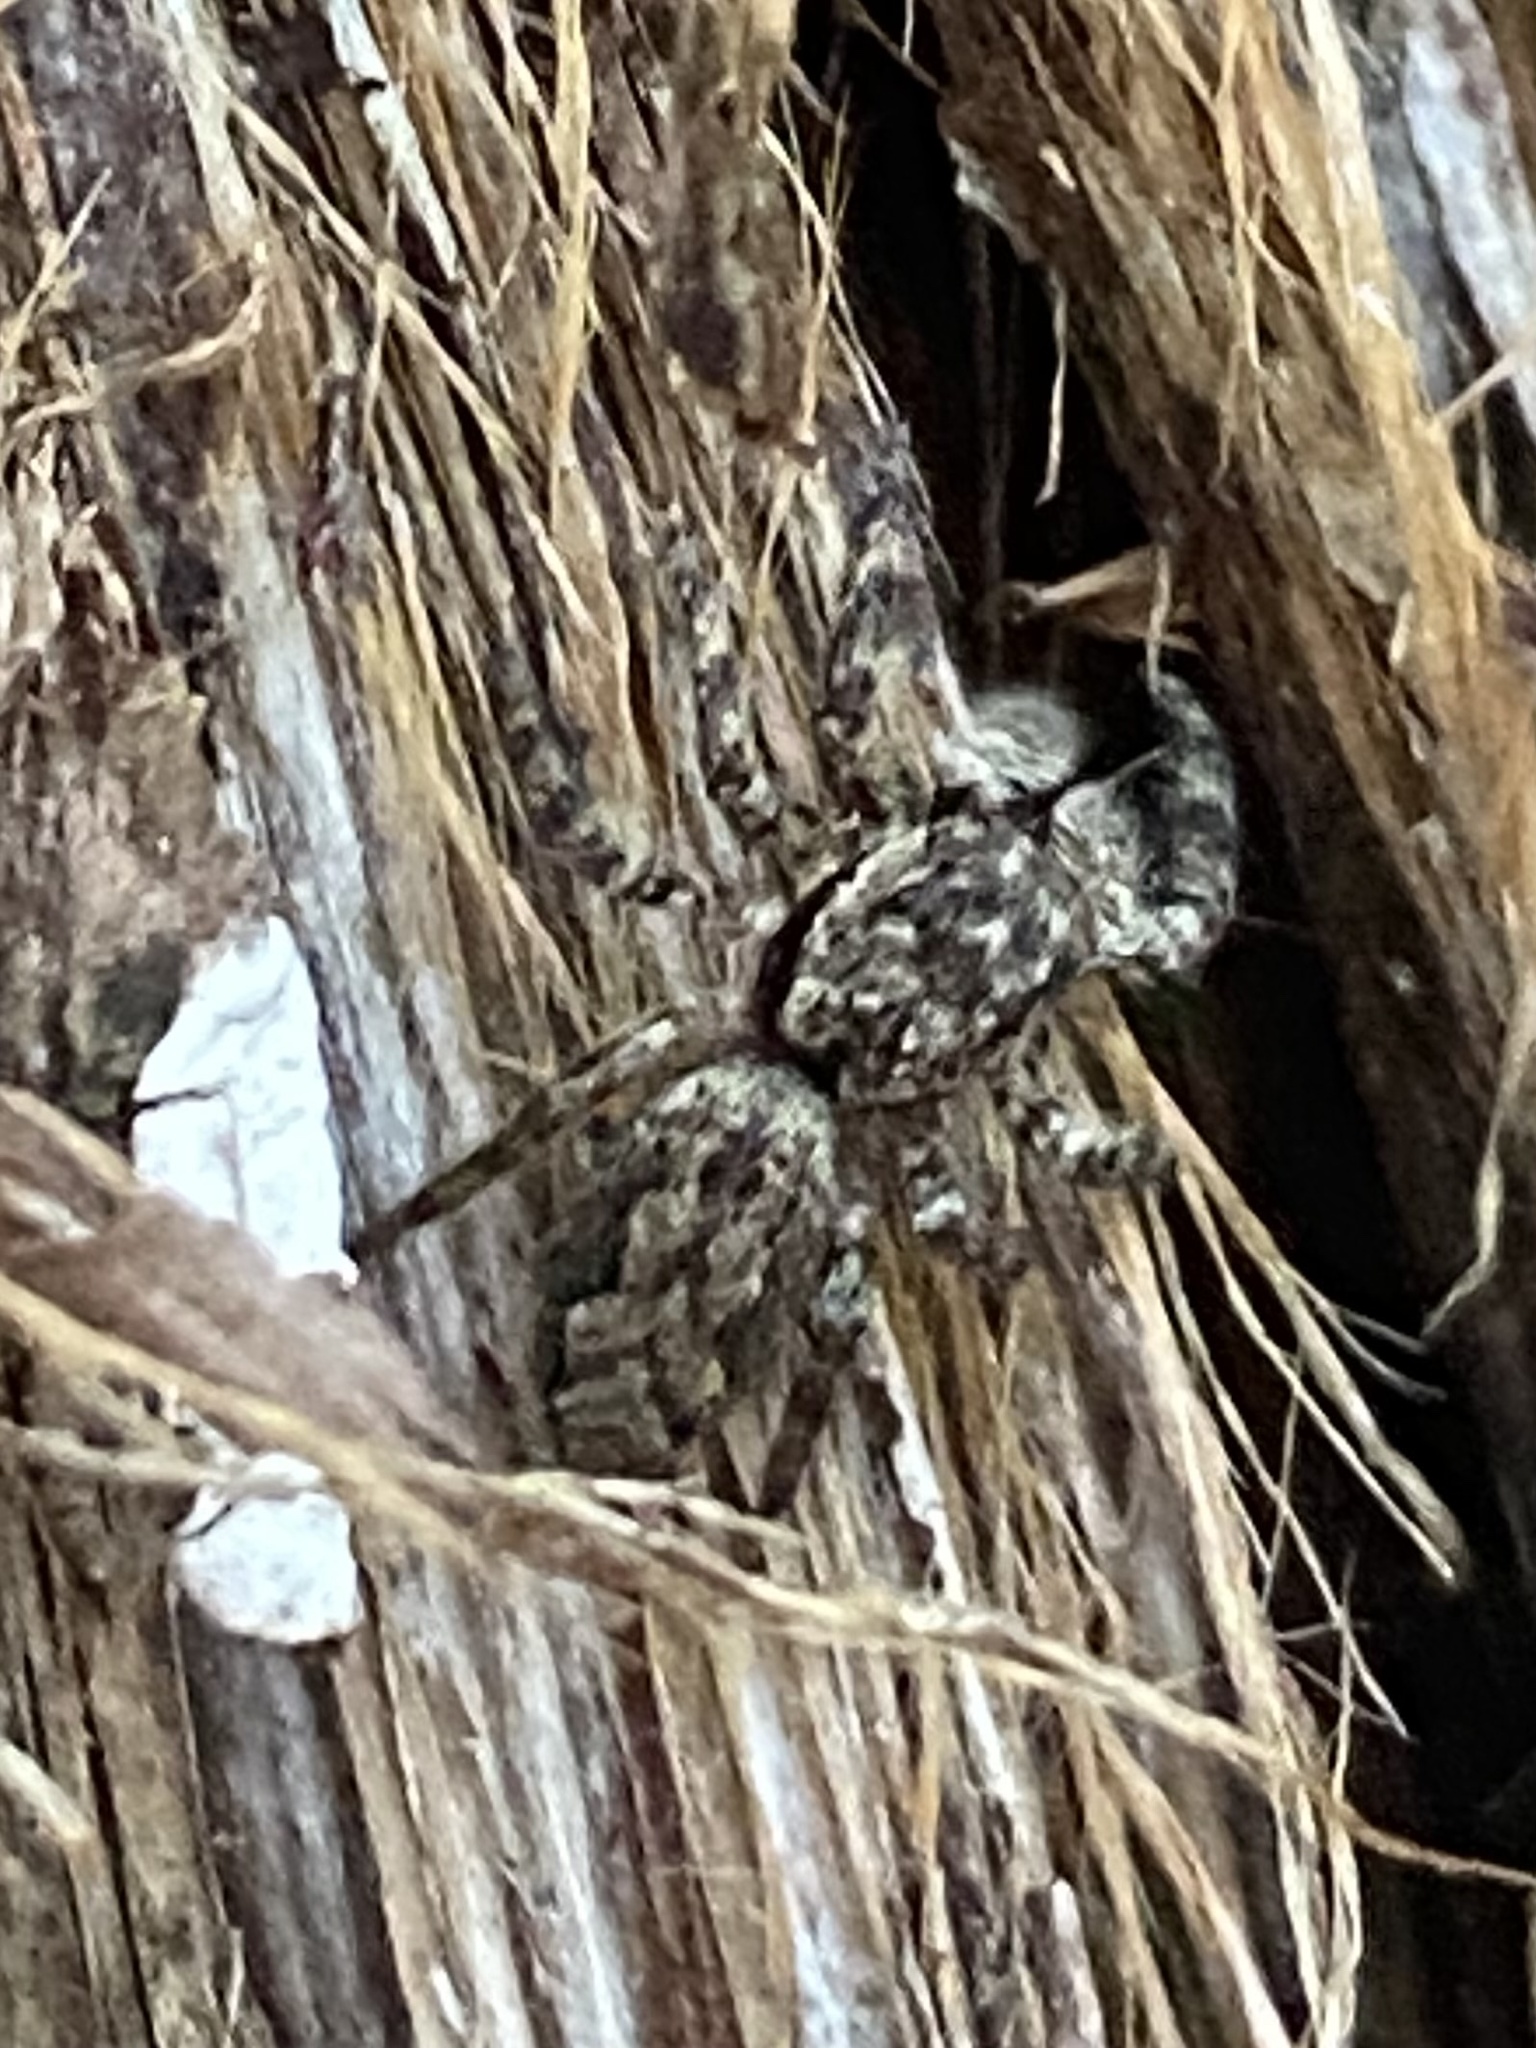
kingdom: Animalia
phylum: Arthropoda
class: Arachnida
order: Araneae
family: Salticidae
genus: Platycryptus
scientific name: Platycryptus undatus
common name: Tan jumping spider
